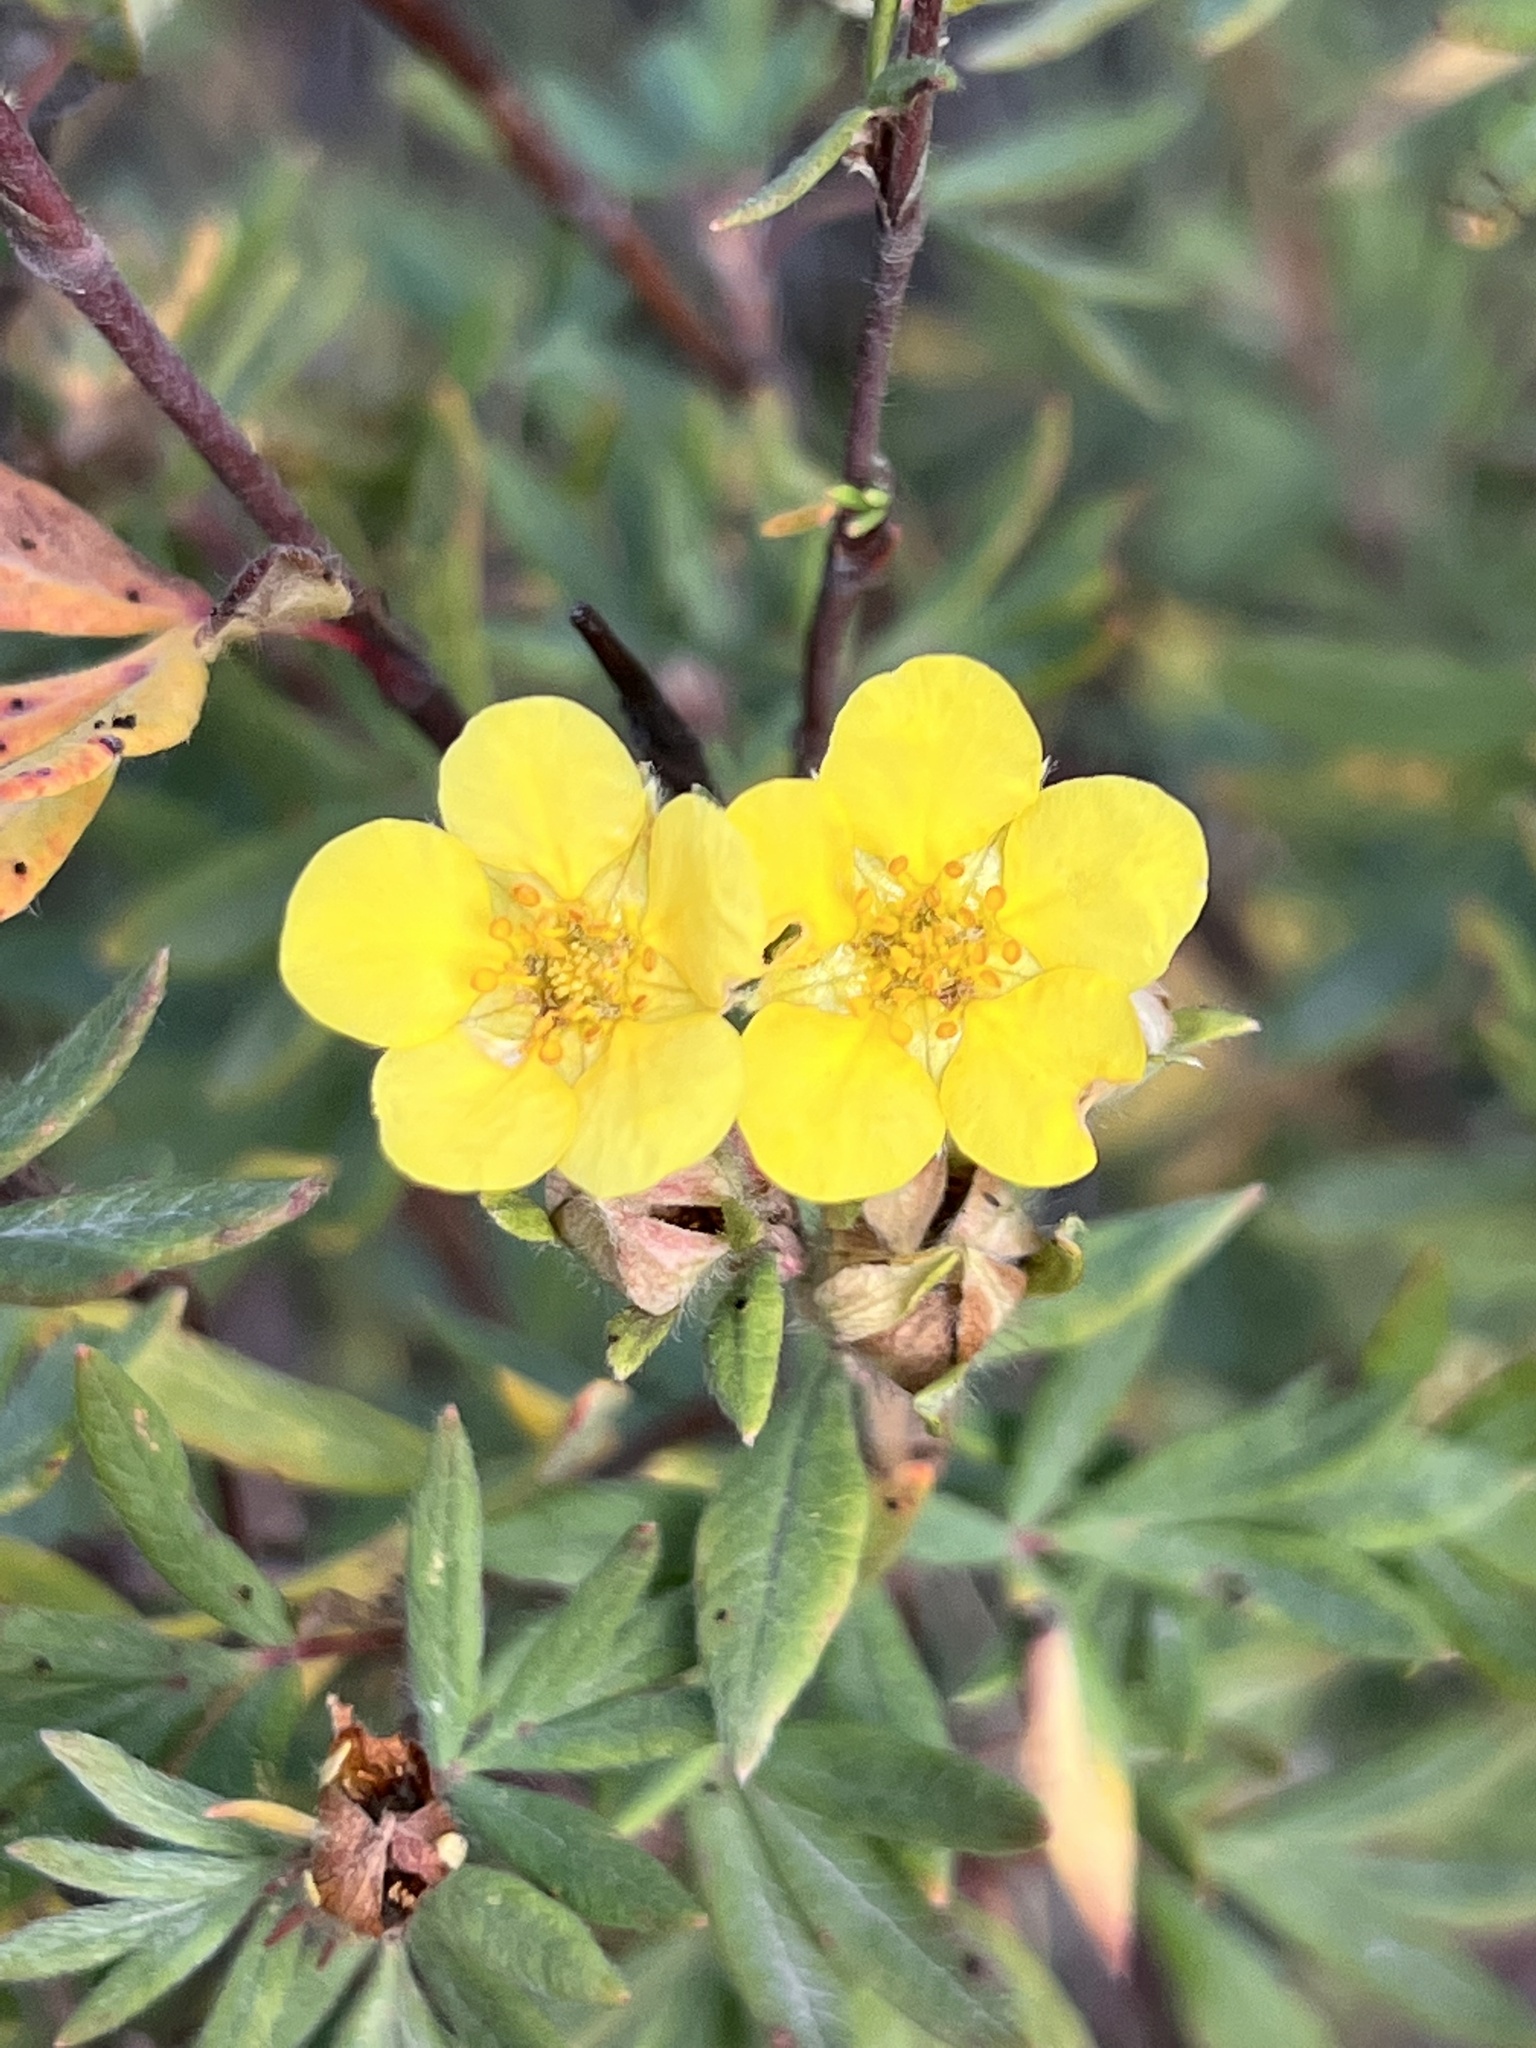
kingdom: Plantae
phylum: Tracheophyta
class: Magnoliopsida
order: Rosales
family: Rosaceae
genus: Dasiphora
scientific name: Dasiphora fruticosa
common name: Shrubby cinquefoil
